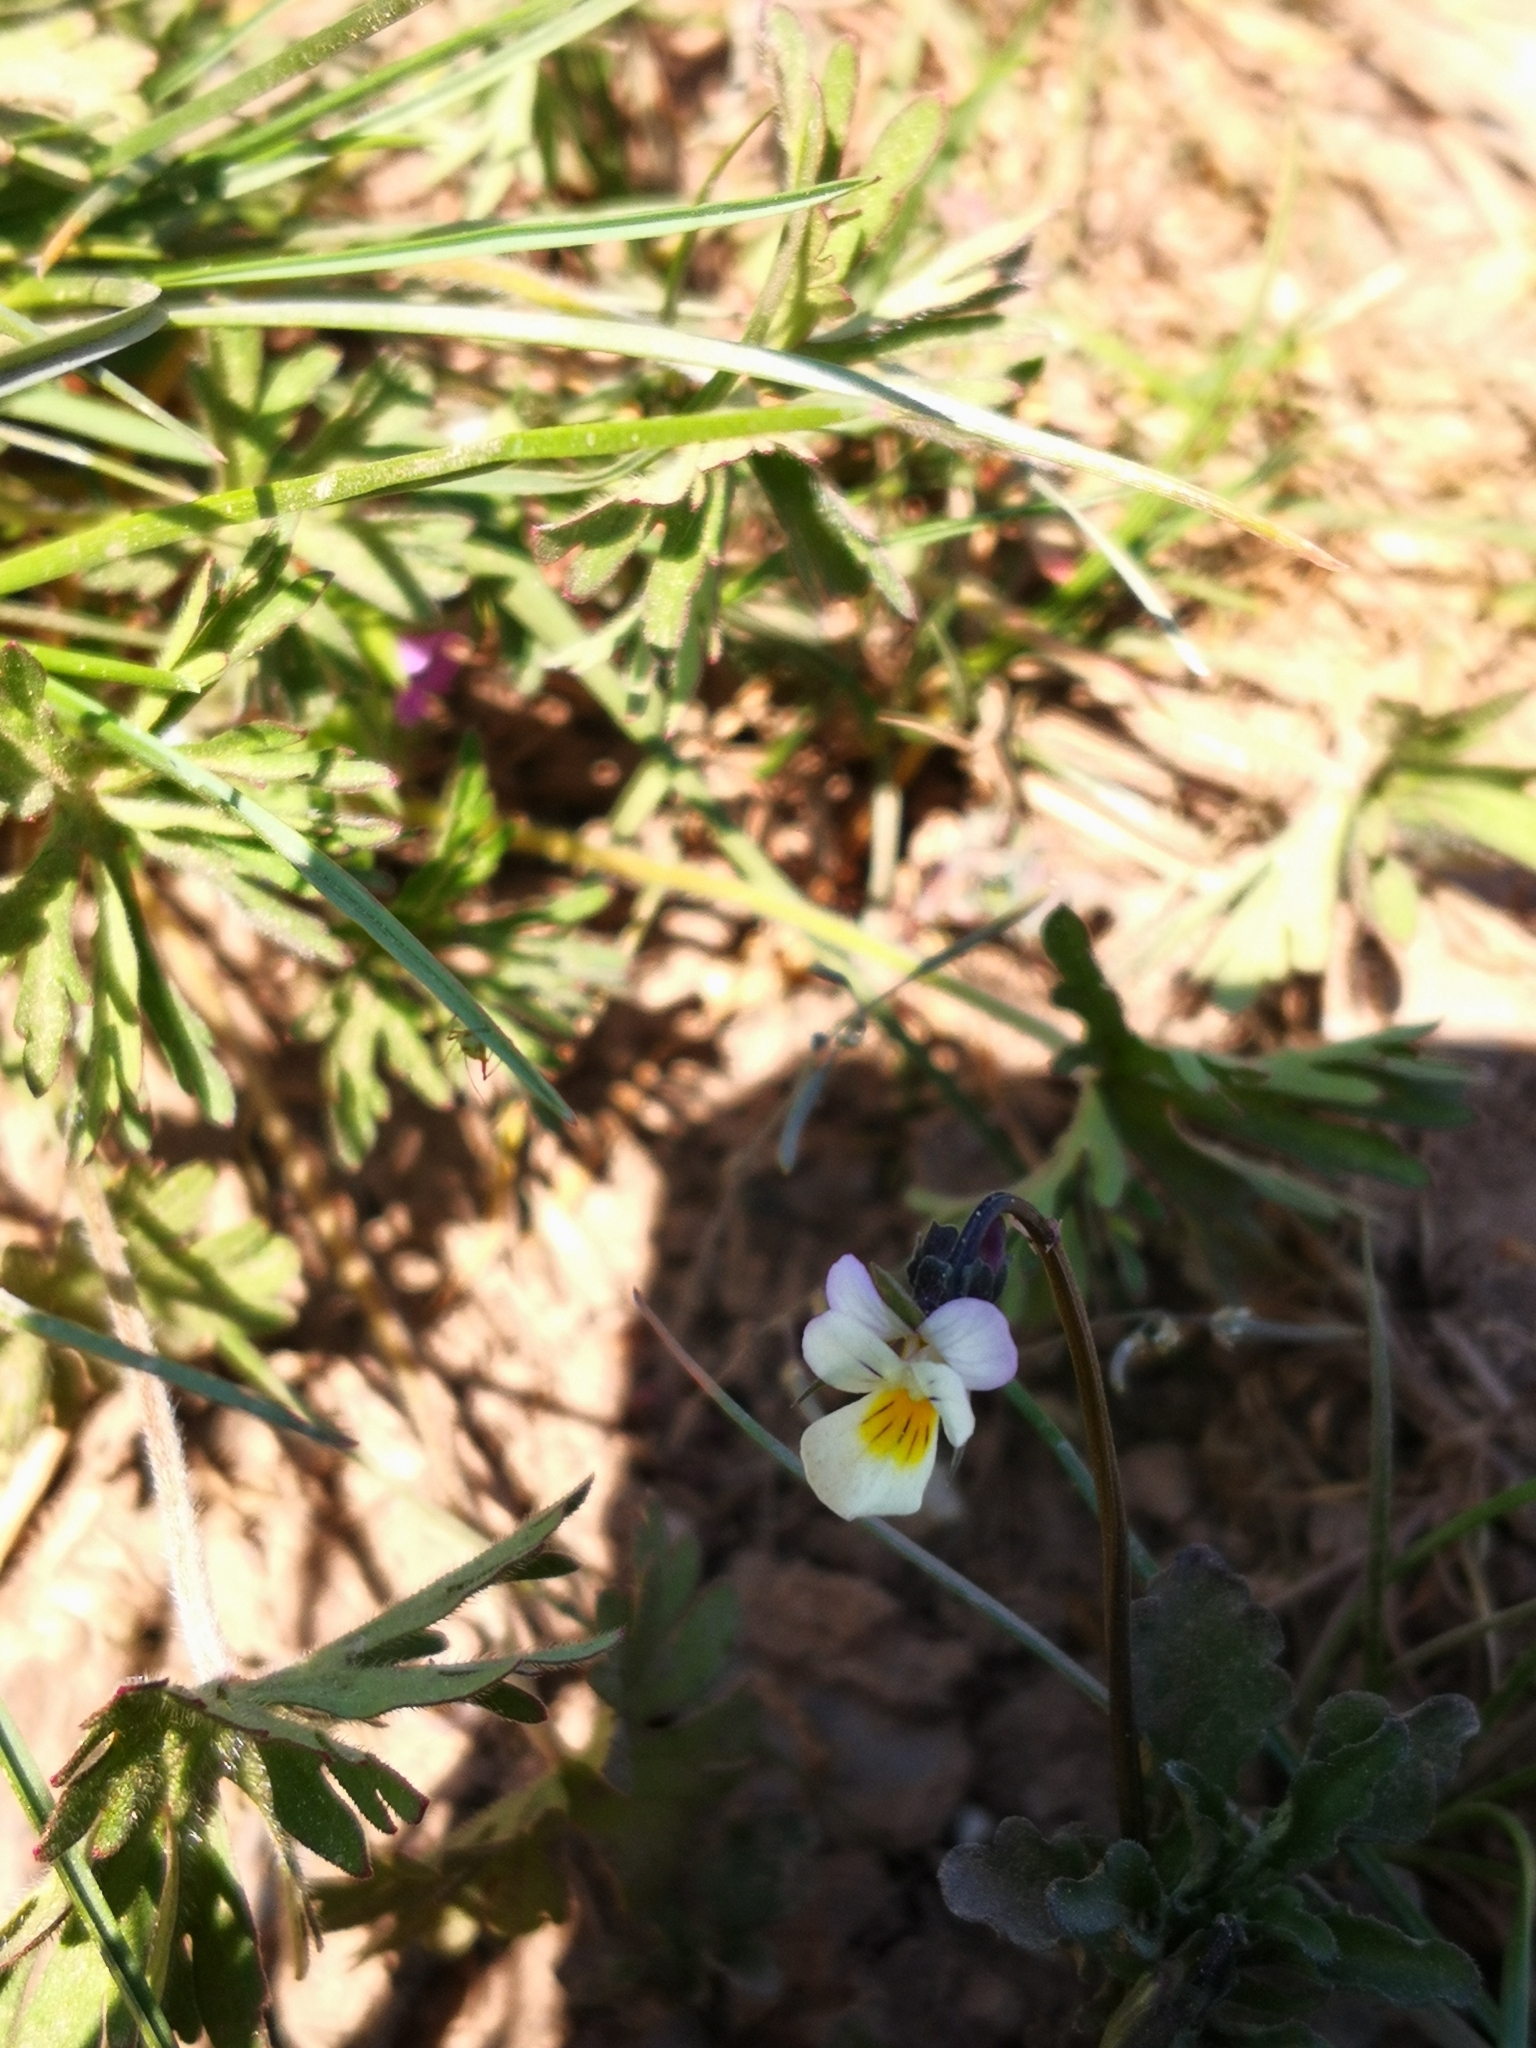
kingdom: Plantae
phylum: Tracheophyta
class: Magnoliopsida
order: Malpighiales
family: Violaceae
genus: Viola
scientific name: Viola arvensis
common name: Field pansy
